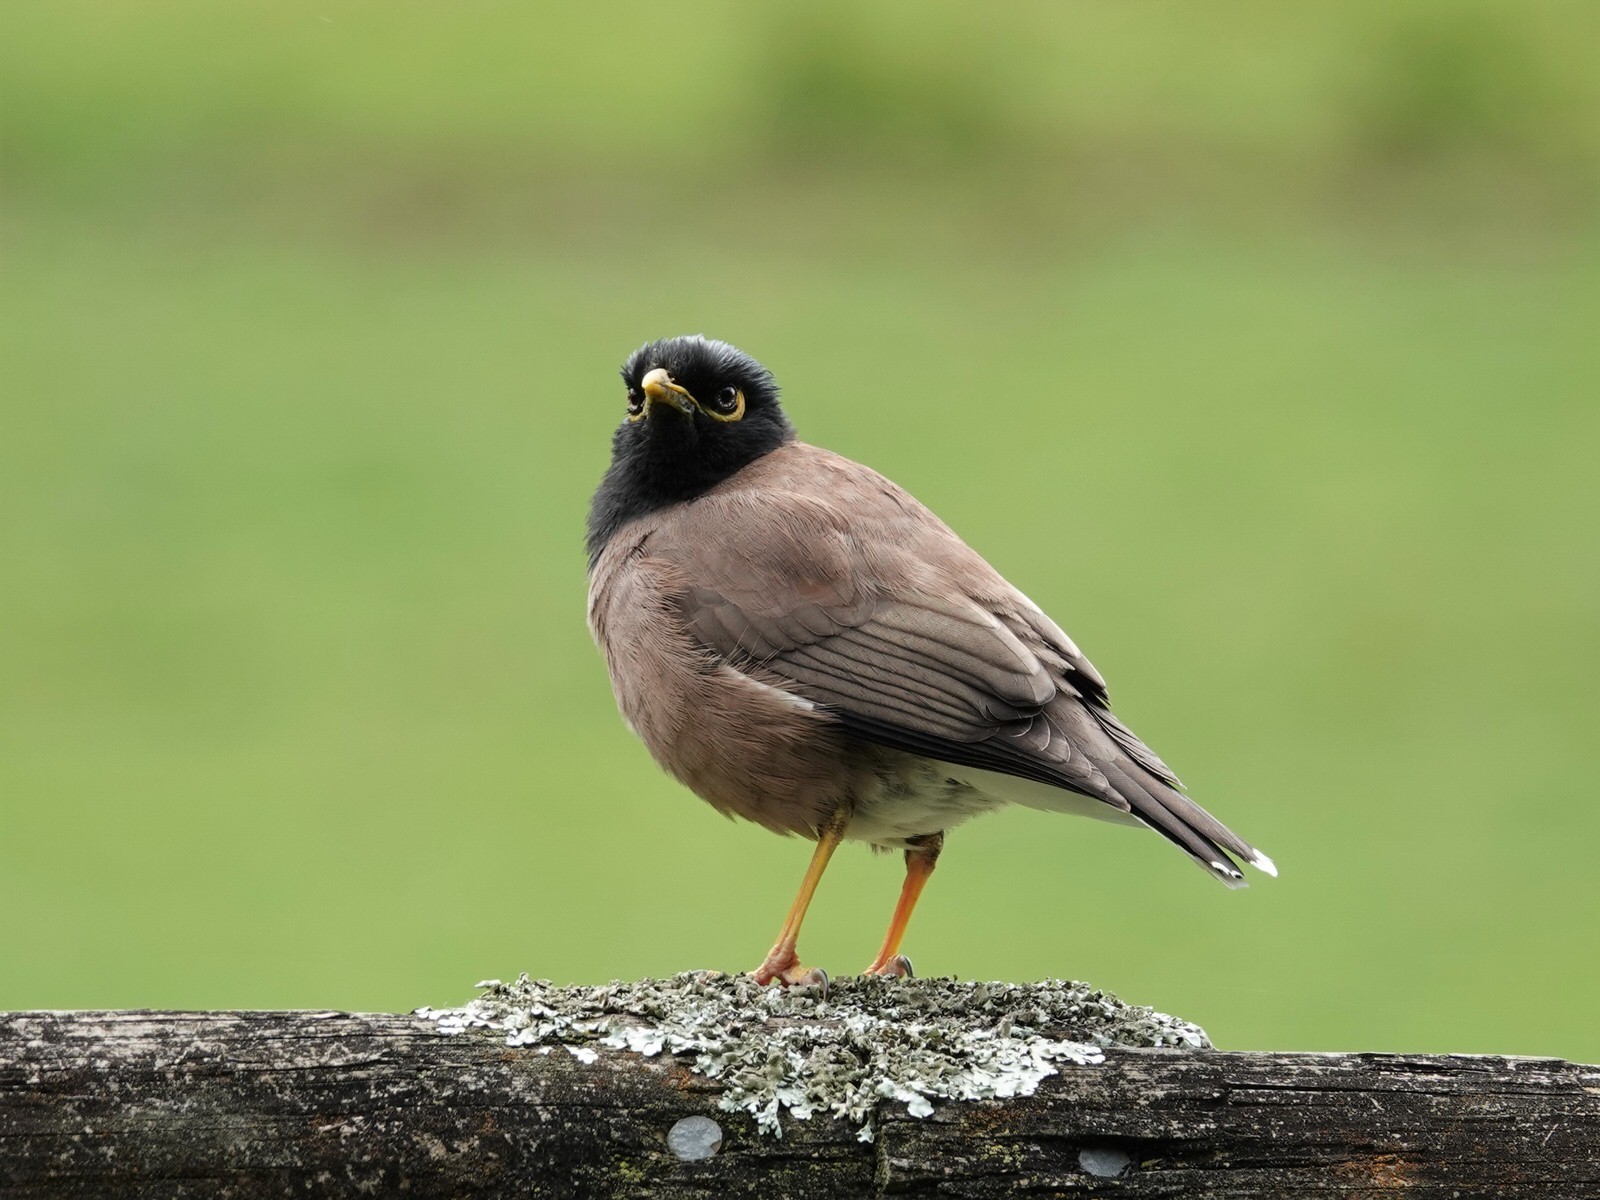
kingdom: Animalia
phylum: Chordata
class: Aves
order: Passeriformes
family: Sturnidae
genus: Acridotheres
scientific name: Acridotheres tristis
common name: Common myna
